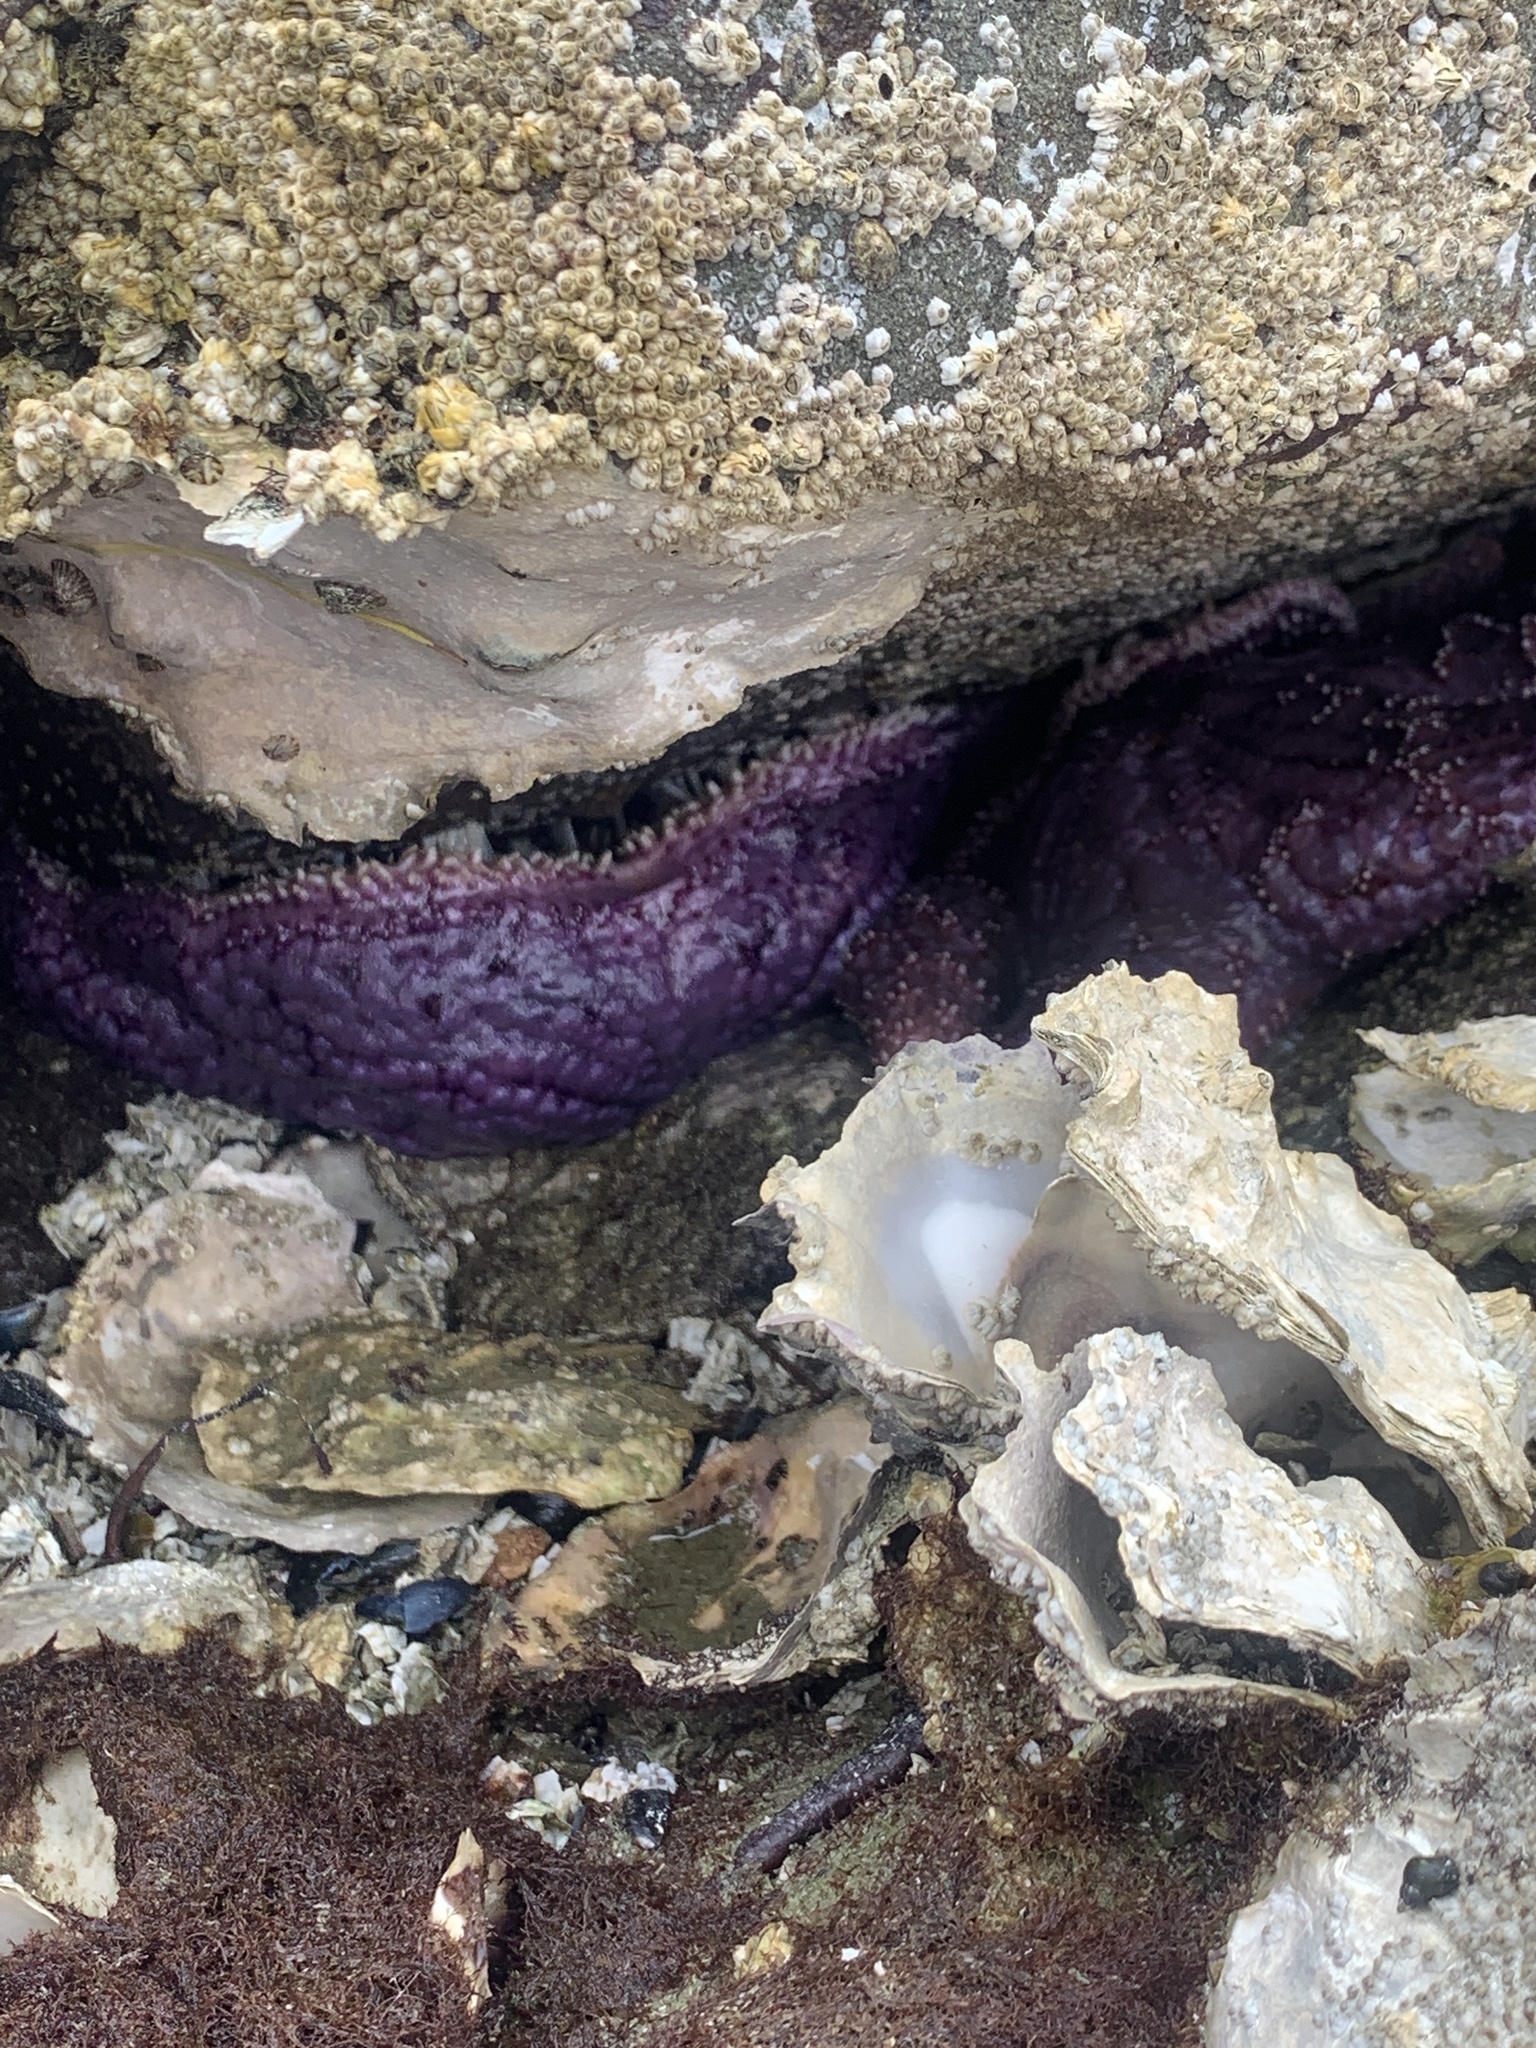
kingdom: Animalia
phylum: Echinodermata
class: Asteroidea
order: Forcipulatida
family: Asteriidae
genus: Pisaster
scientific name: Pisaster ochraceus
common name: Ochre stars
